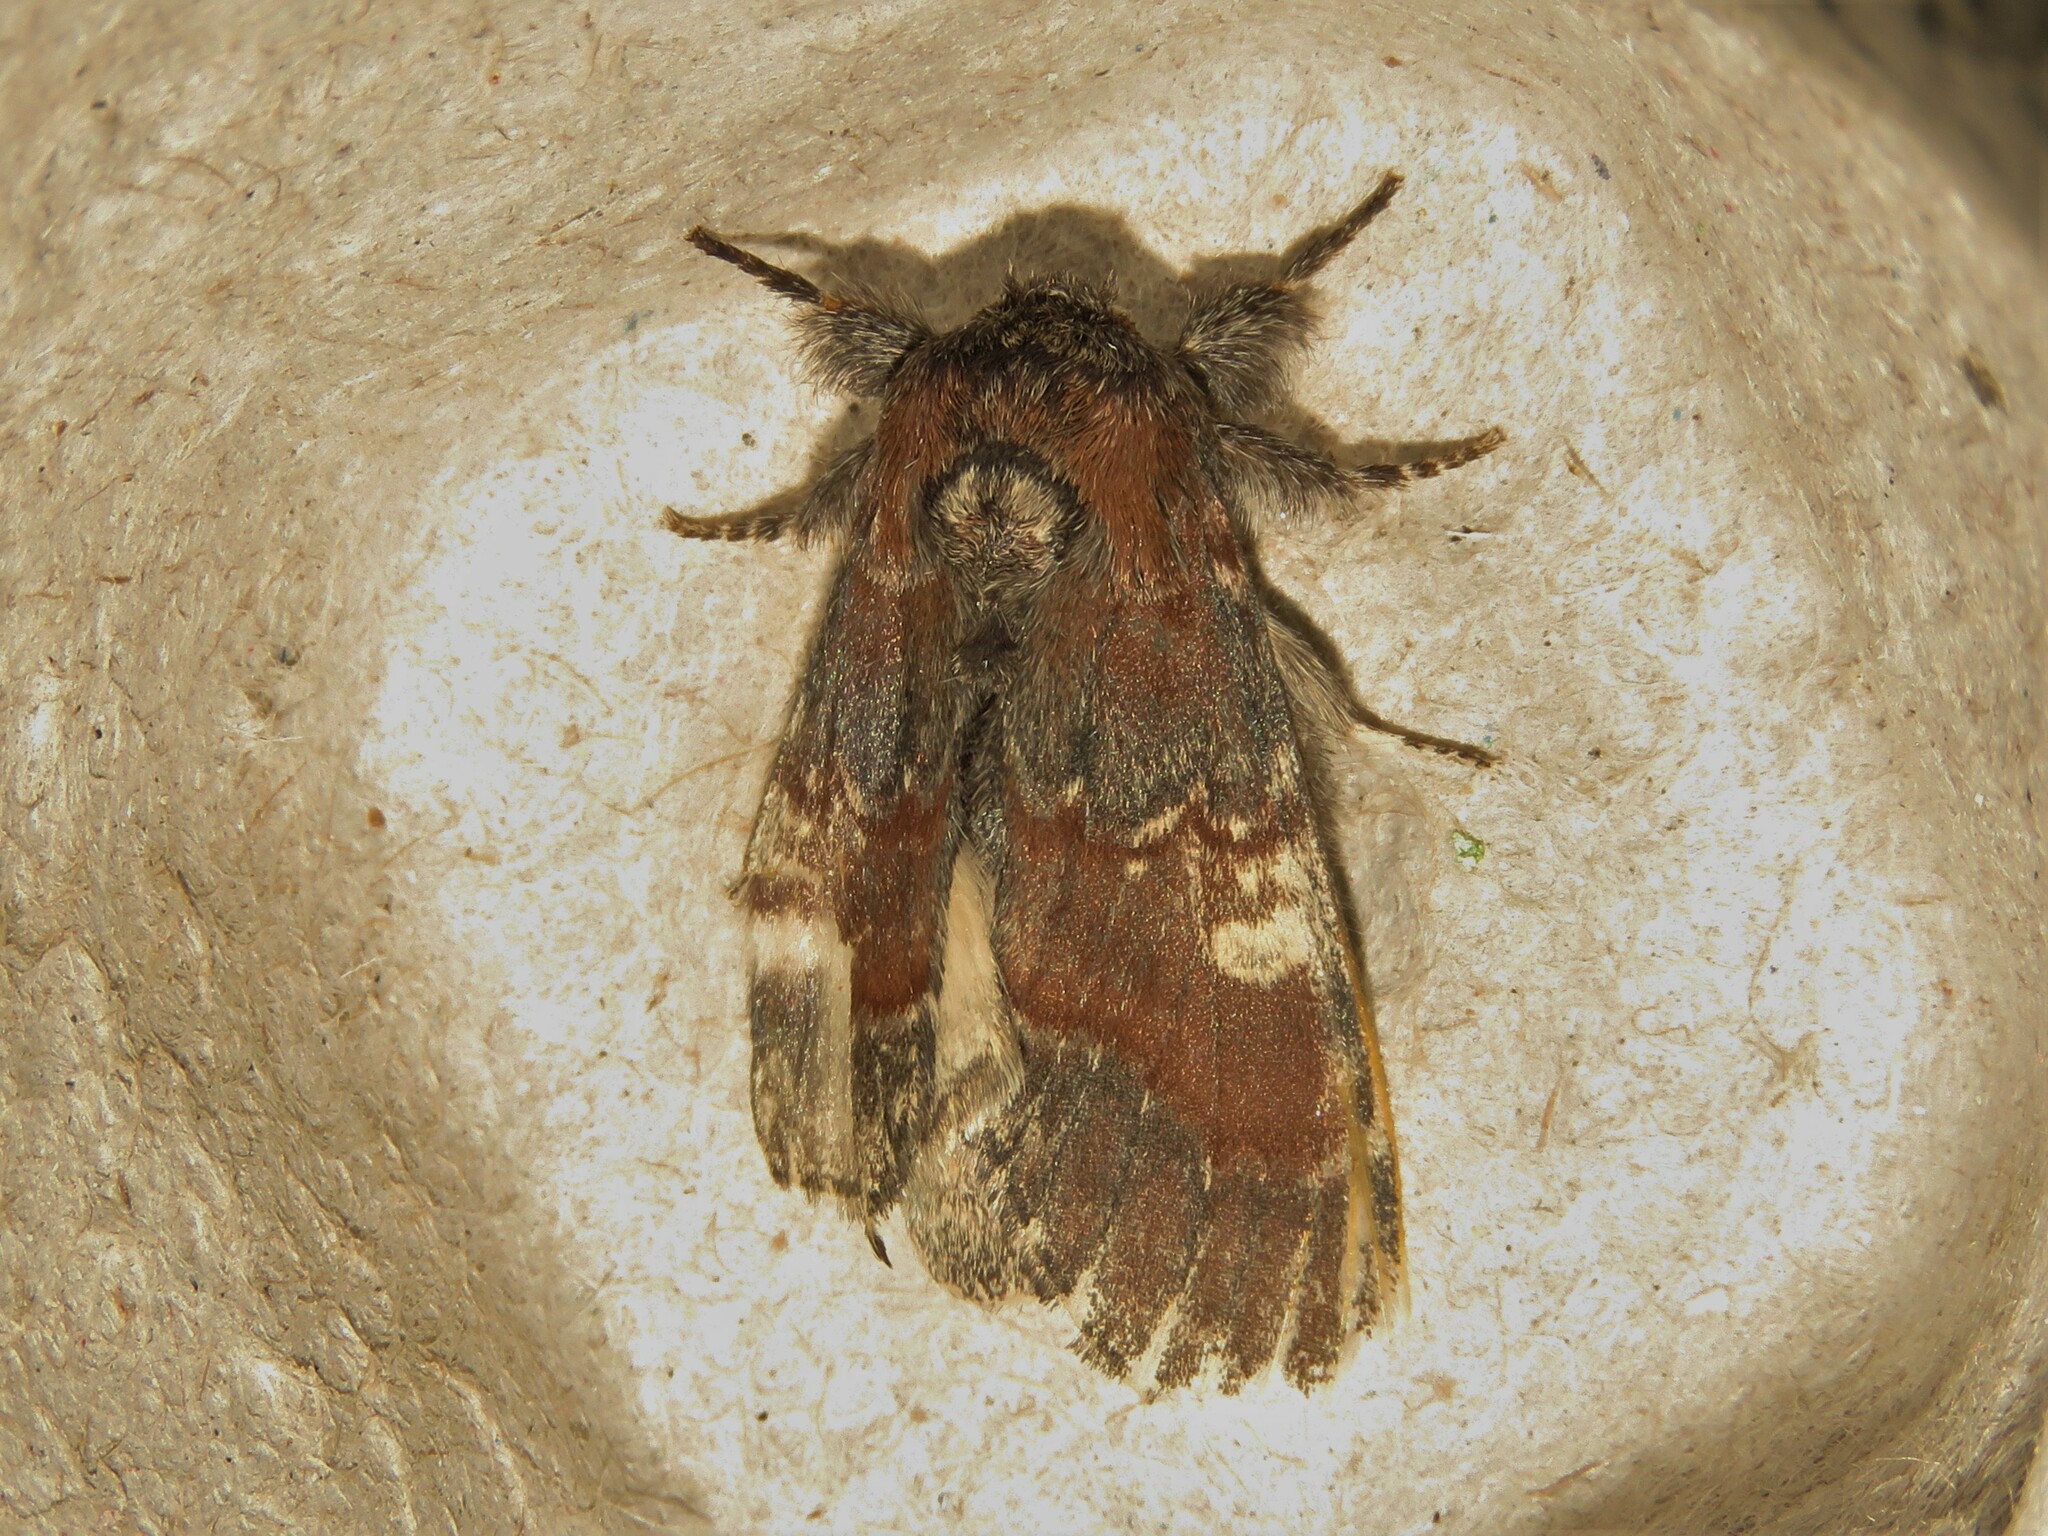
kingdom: Animalia
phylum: Arthropoda
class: Insecta
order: Lepidoptera
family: Notodontidae
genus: Peridea
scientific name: Peridea ferruginea
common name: Chocolate prominent
